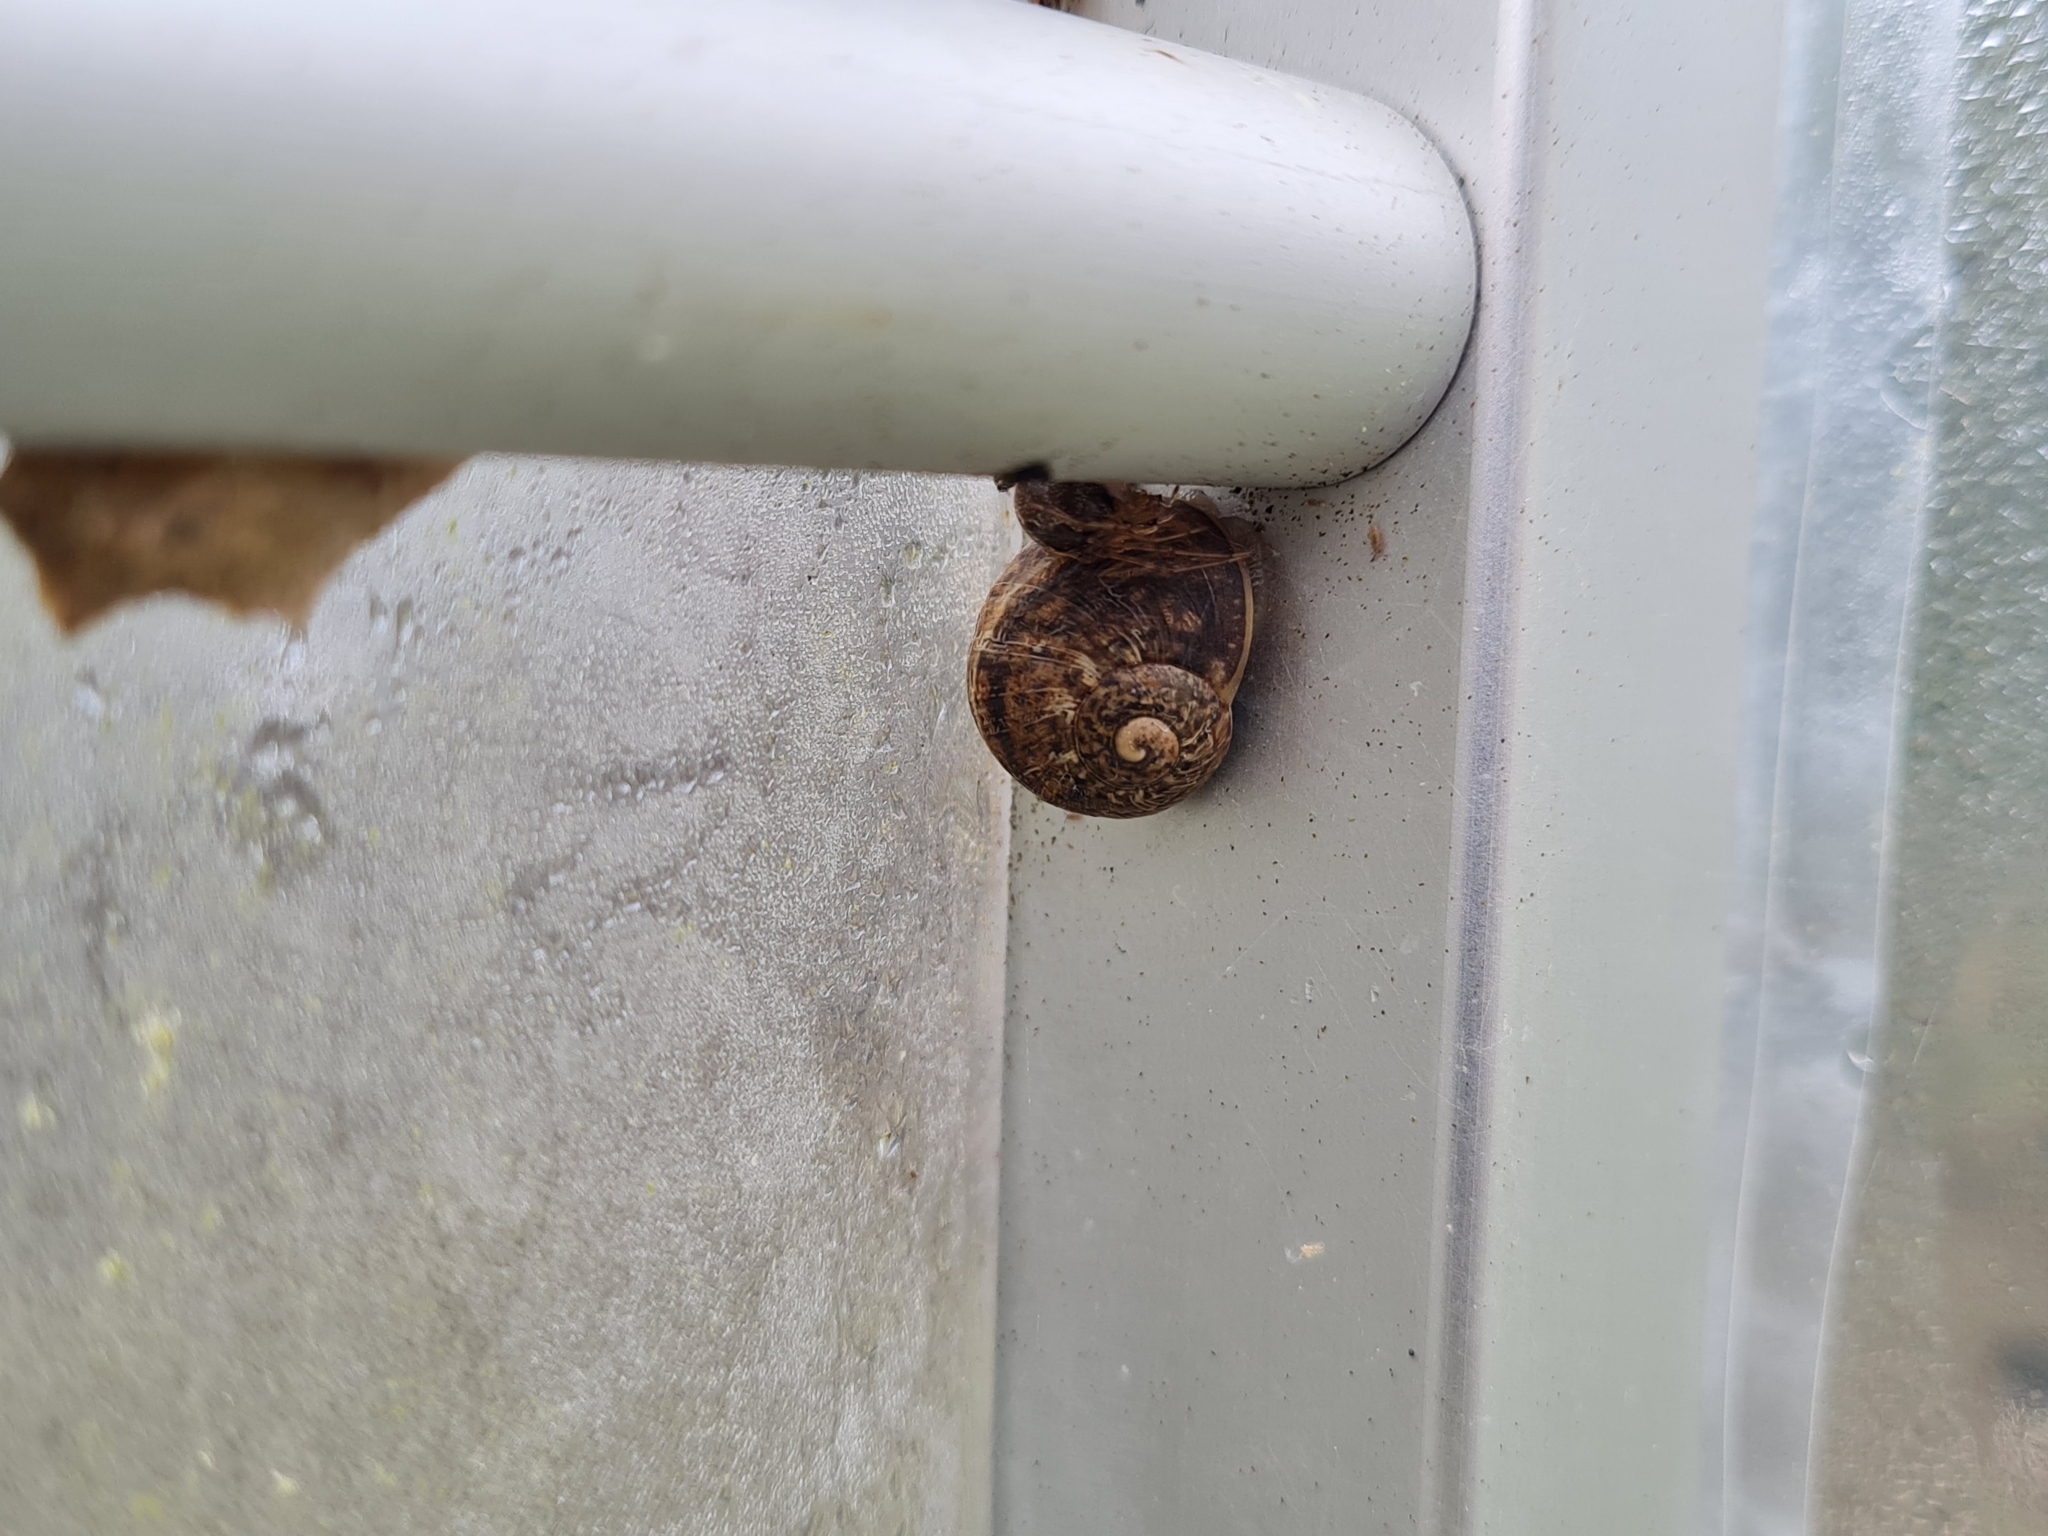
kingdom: Animalia
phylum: Mollusca
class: Gastropoda
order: Stylommatophora
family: Helicidae
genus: Cornu
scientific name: Cornu aspersum
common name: Brown garden snail
